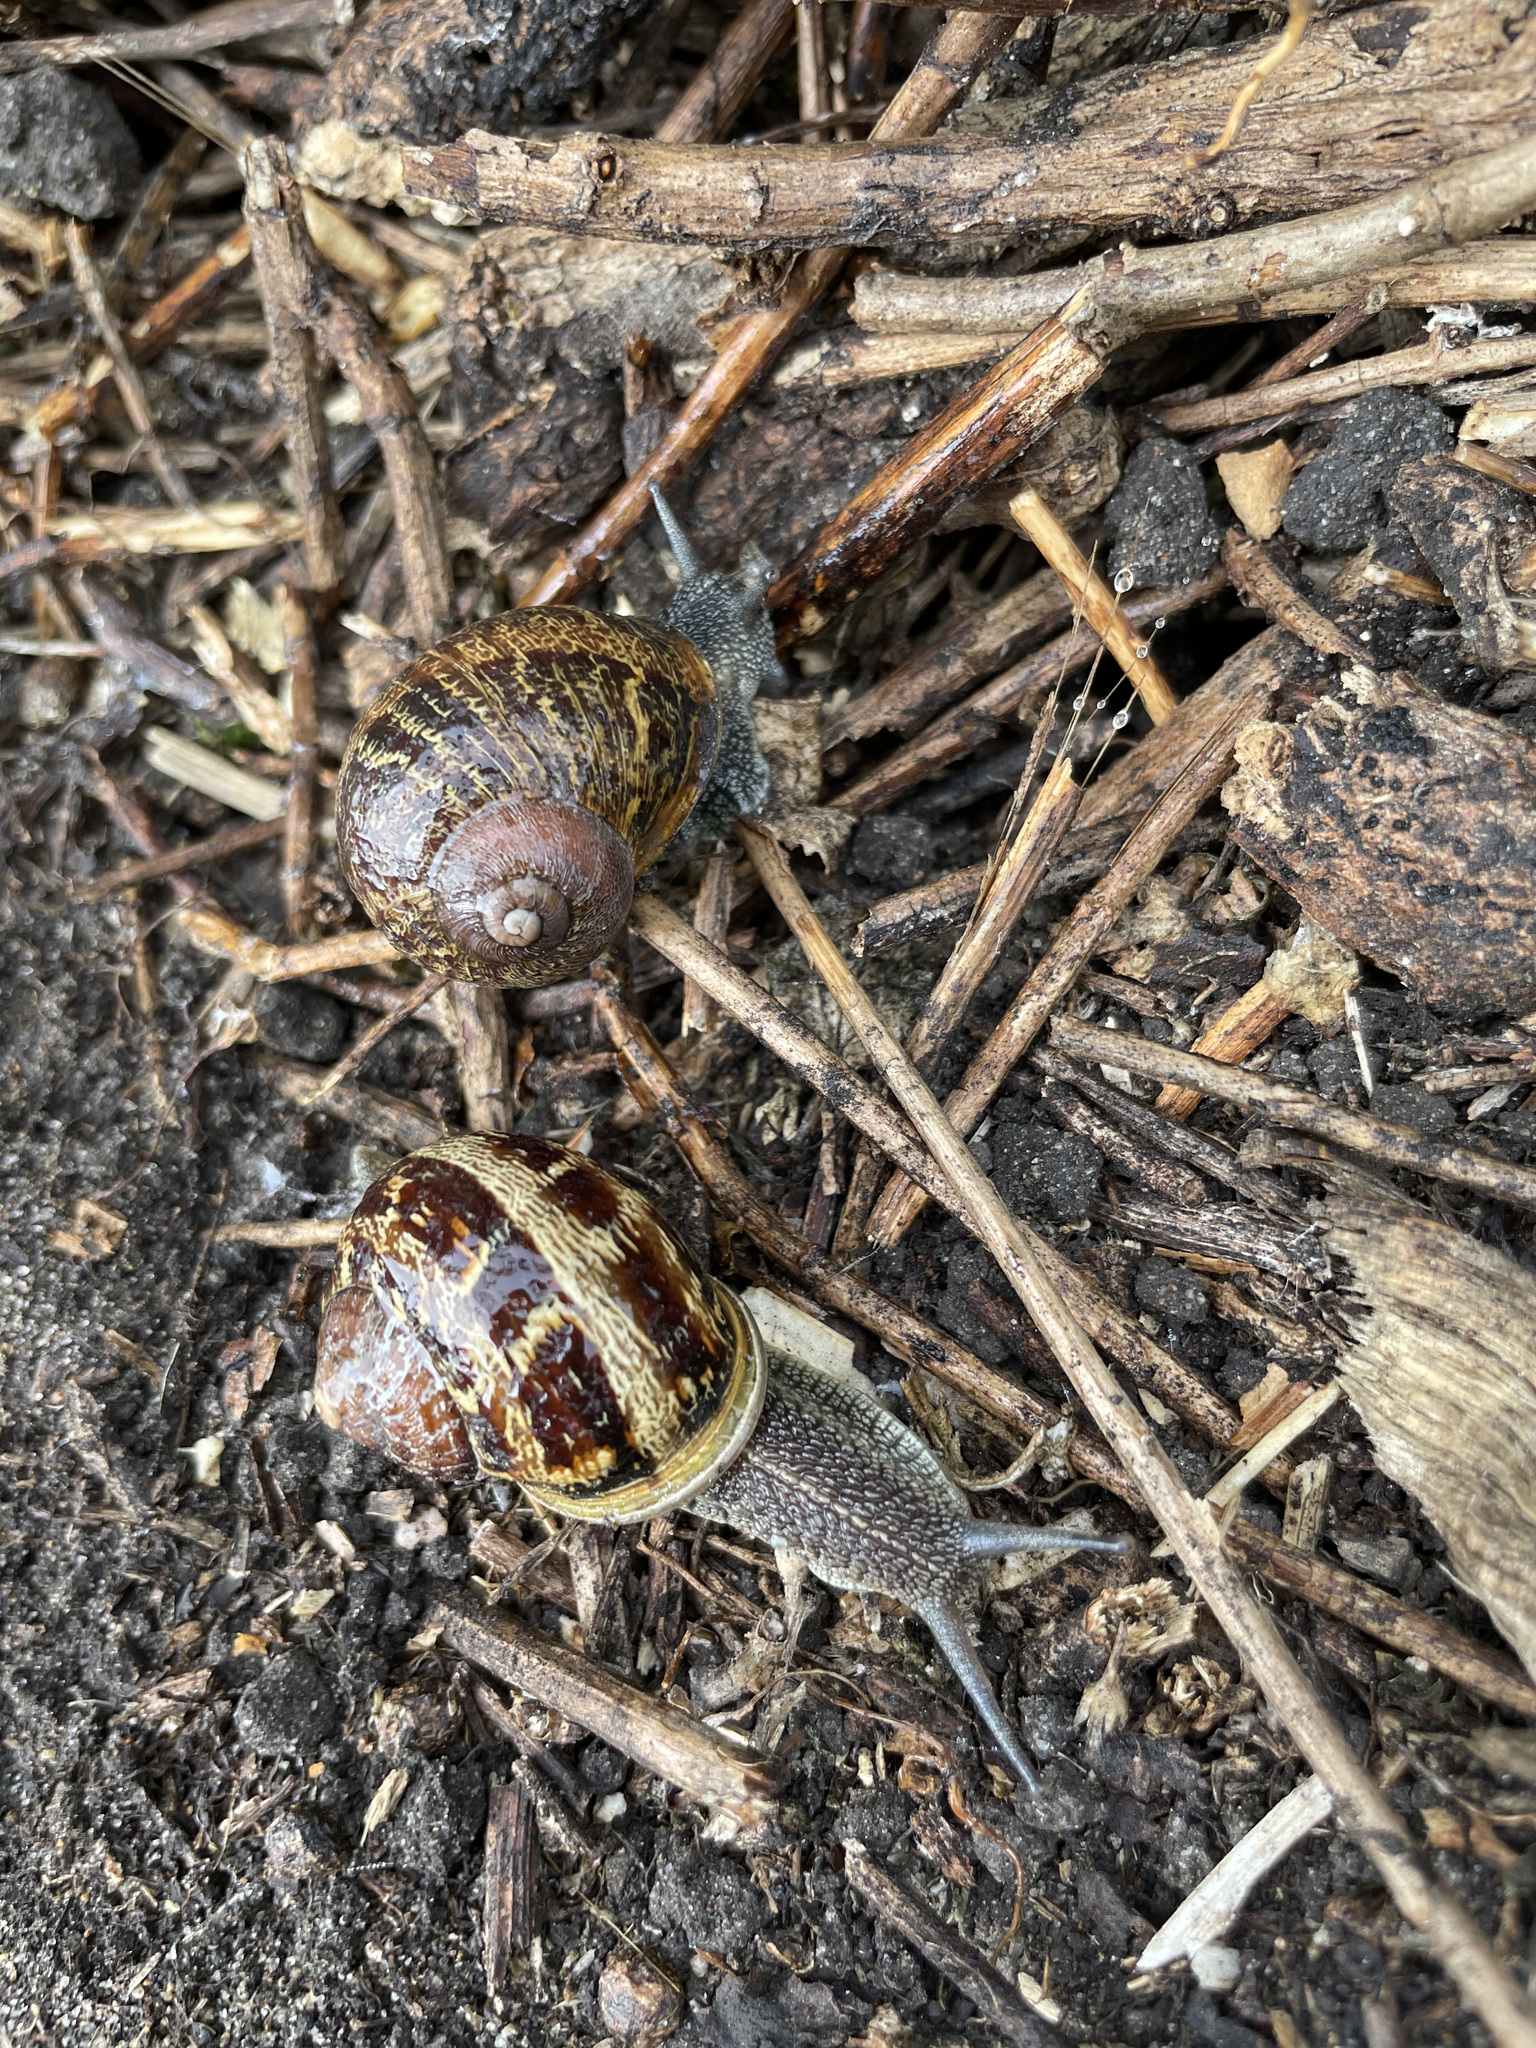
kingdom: Animalia
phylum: Mollusca
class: Gastropoda
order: Stylommatophora
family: Helicidae
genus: Cornu
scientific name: Cornu aspersum
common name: Brown garden snail
